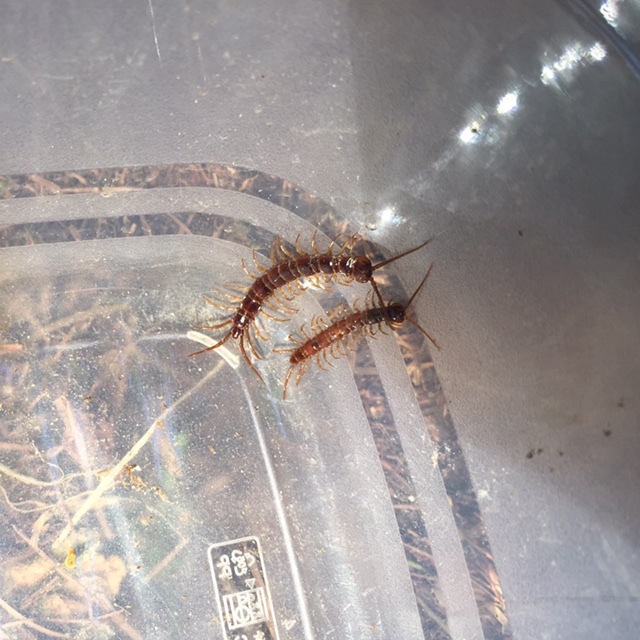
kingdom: Animalia
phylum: Arthropoda
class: Chilopoda
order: Lithobiomorpha
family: Lithobiidae
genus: Lithobius
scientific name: Lithobius forficatus
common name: Centipede
